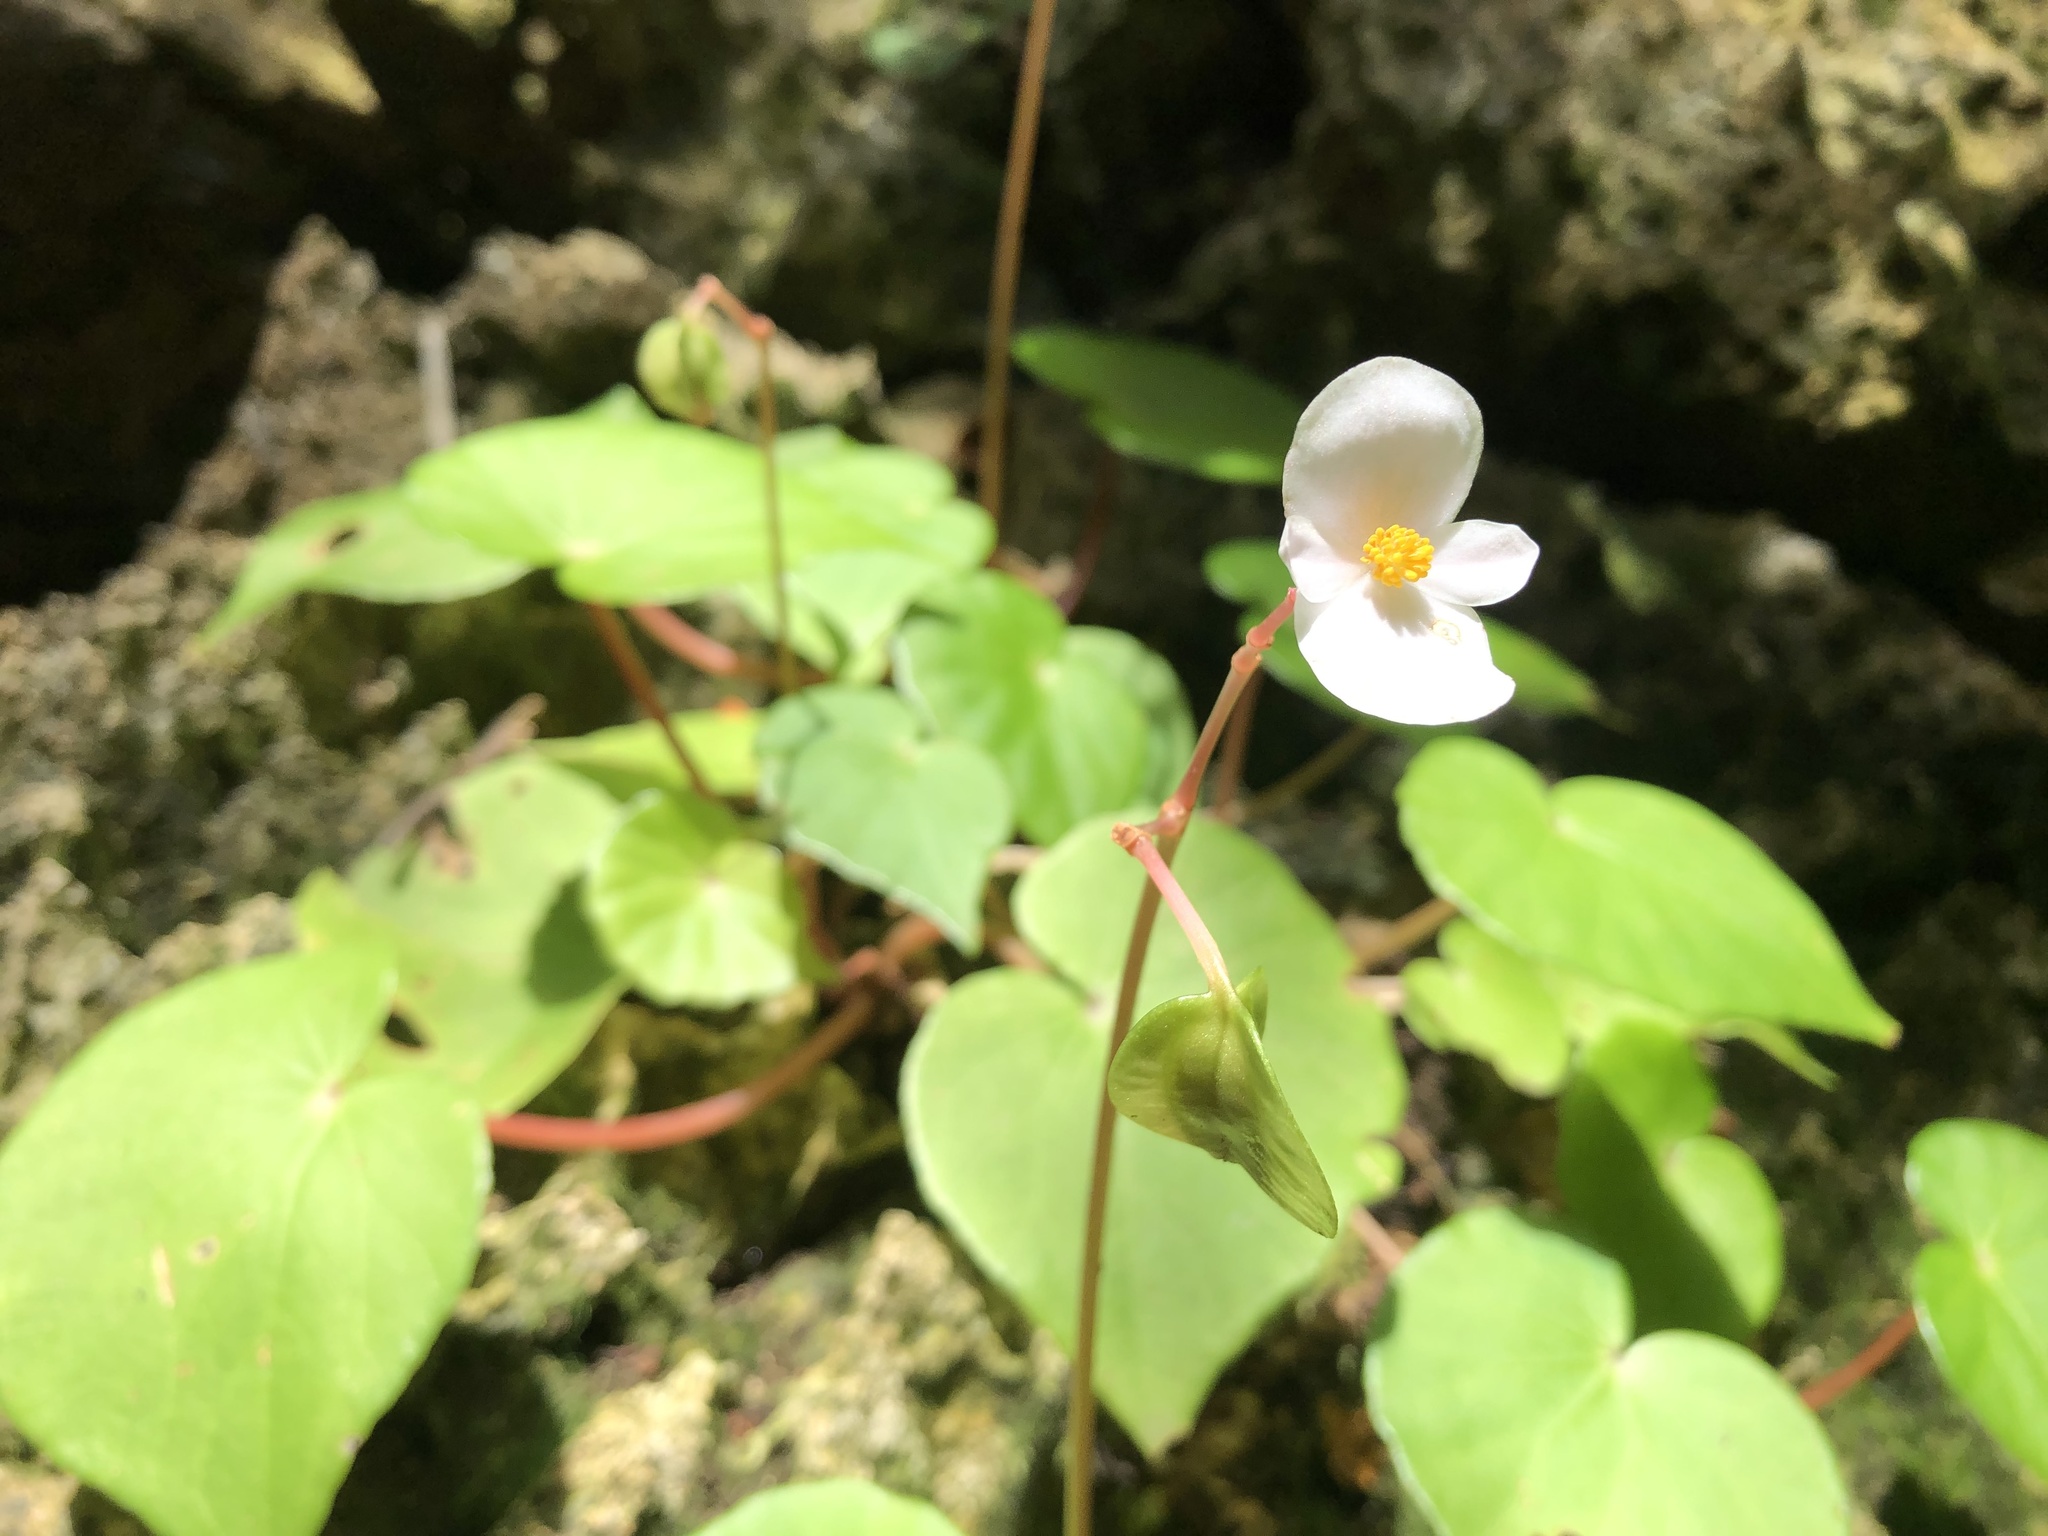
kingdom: Plantae
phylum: Tracheophyta
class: Magnoliopsida
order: Cucurbitales
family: Begoniaceae
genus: Begonia
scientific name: Begonia fenicis
